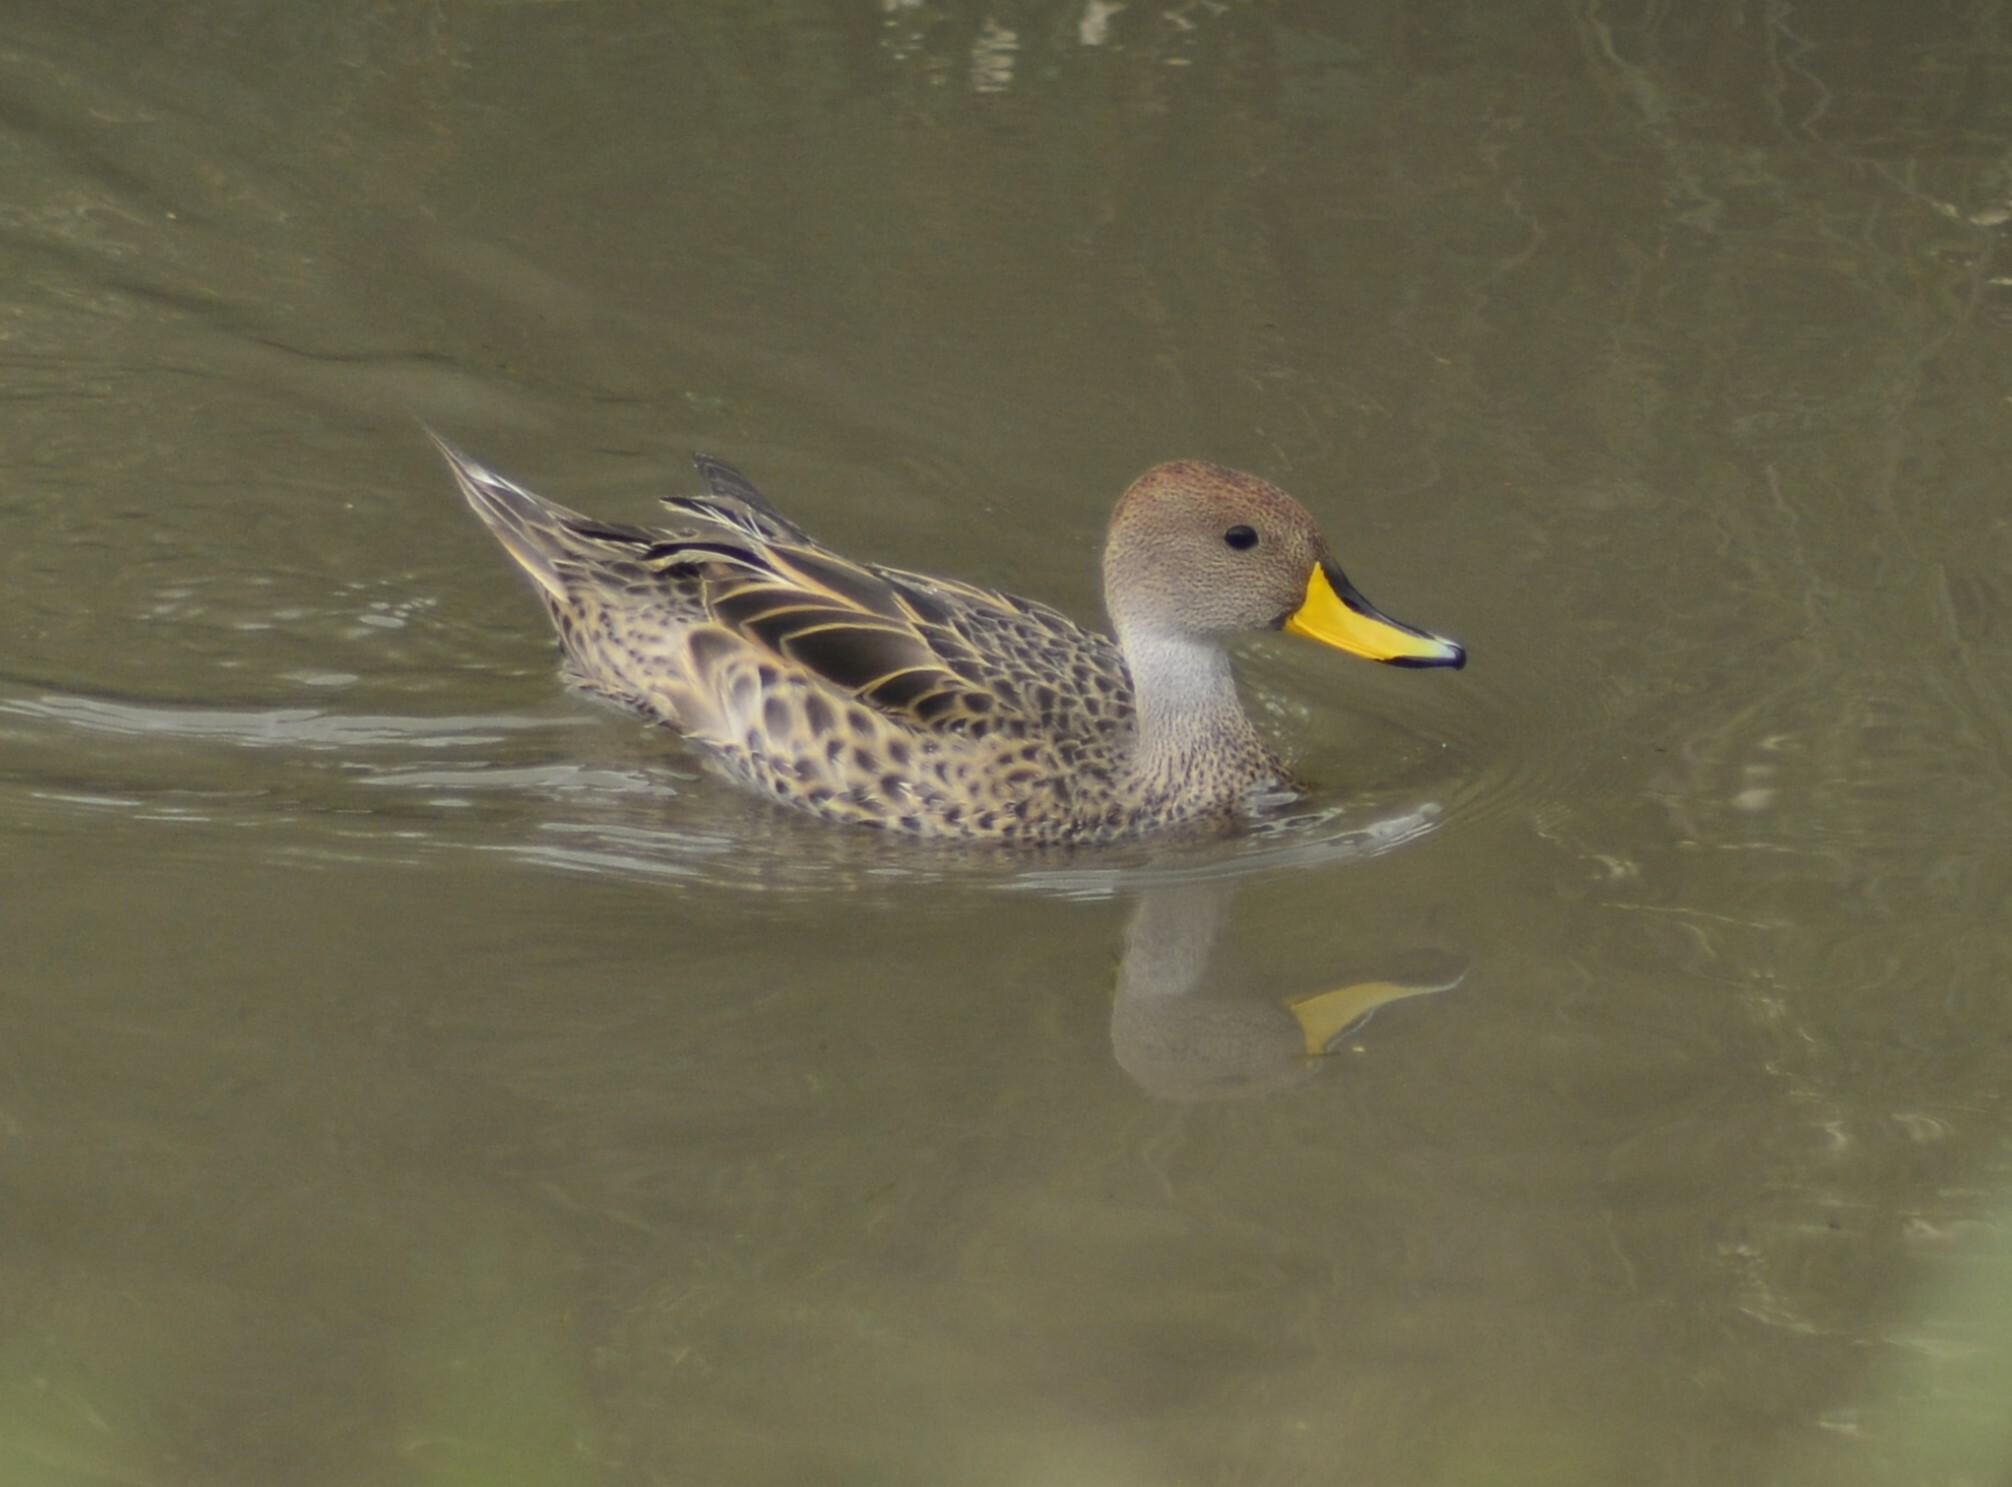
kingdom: Animalia
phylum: Chordata
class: Aves
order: Anseriformes
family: Anatidae
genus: Anas
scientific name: Anas georgica
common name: Yellow-billed pintail
